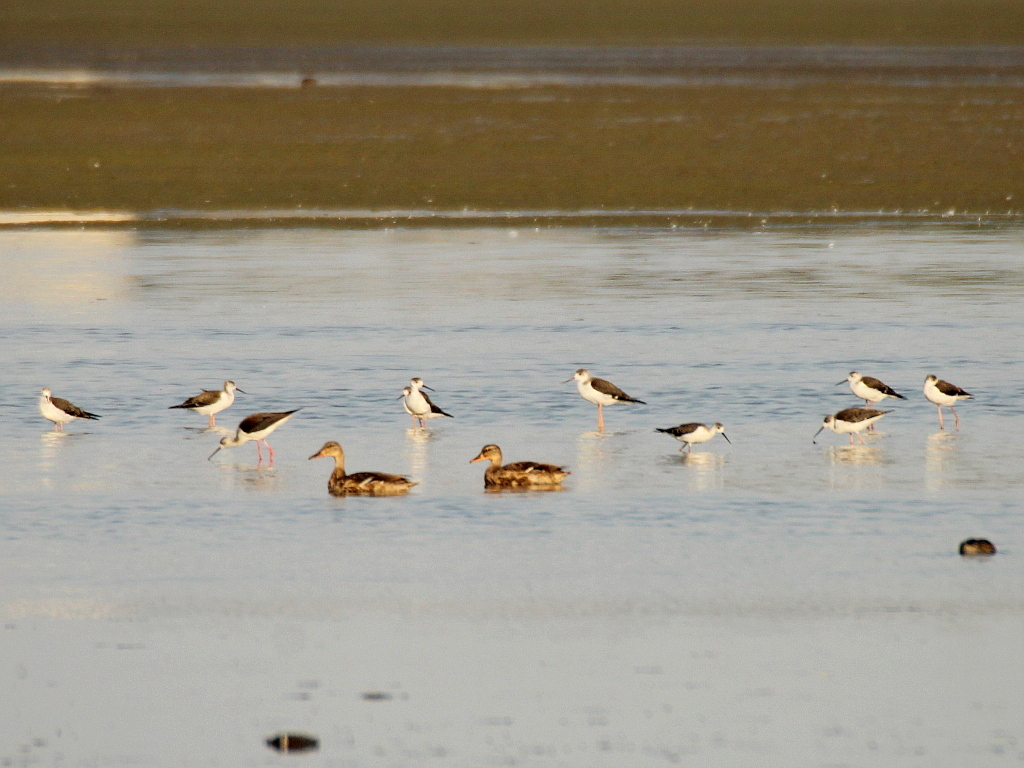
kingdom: Animalia
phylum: Chordata
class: Aves
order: Charadriiformes
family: Recurvirostridae
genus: Himantopus
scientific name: Himantopus himantopus
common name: Black-winged stilt
